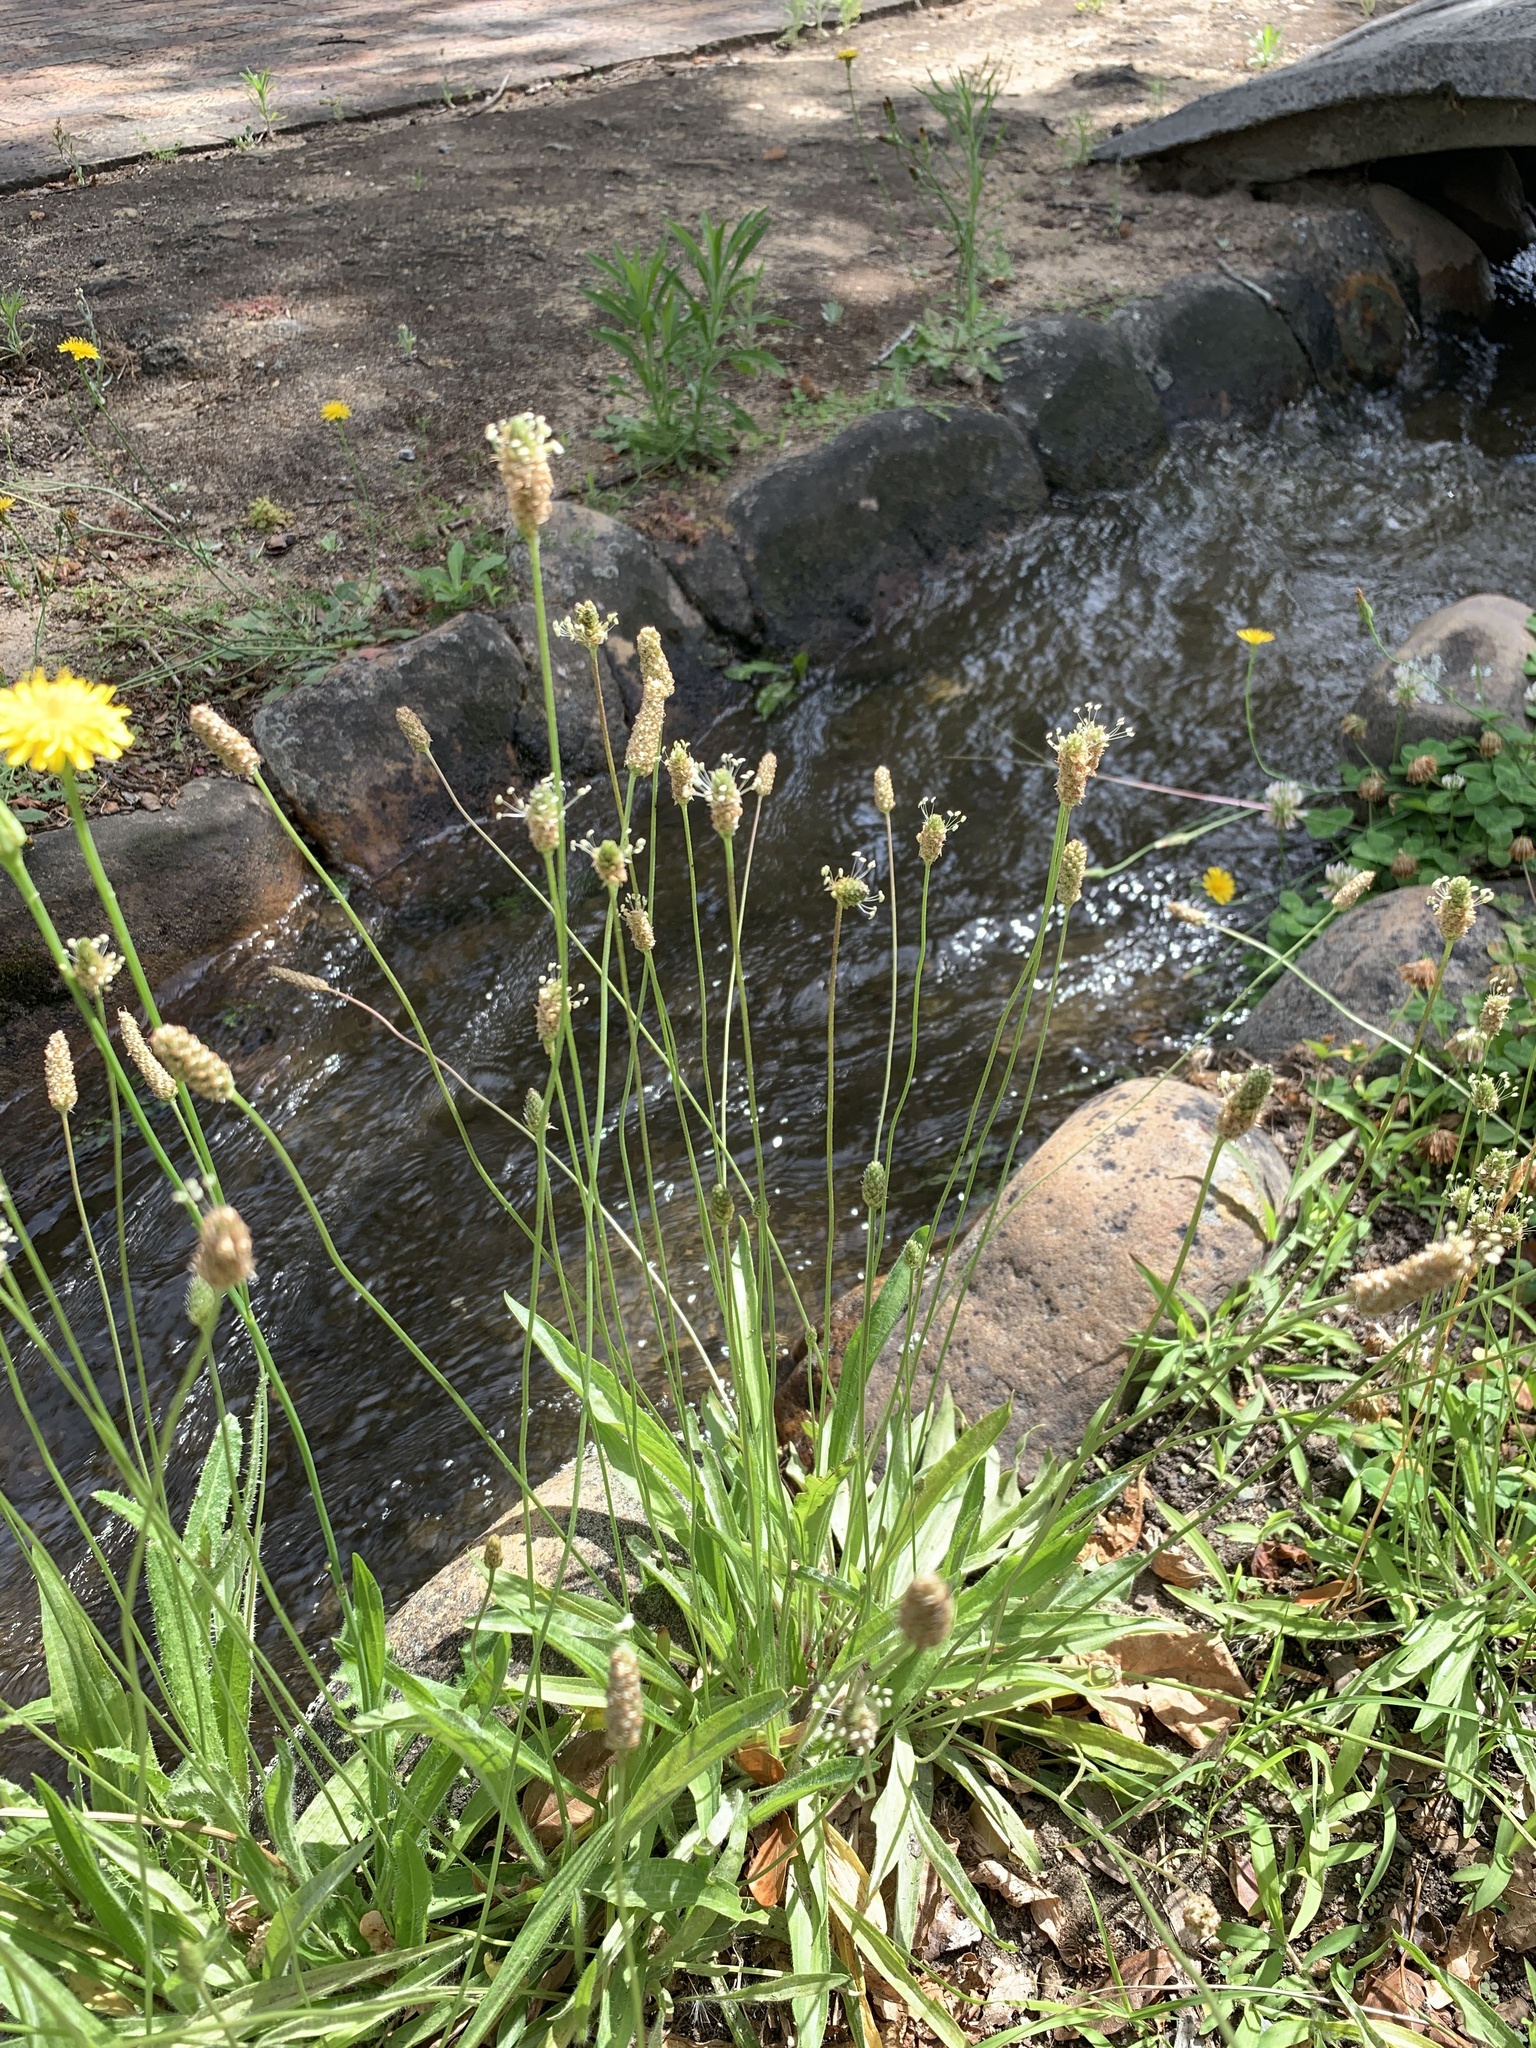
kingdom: Plantae
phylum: Tracheophyta
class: Magnoliopsida
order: Lamiales
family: Plantaginaceae
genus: Plantago
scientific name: Plantago lanceolata
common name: Ribwort plantain
